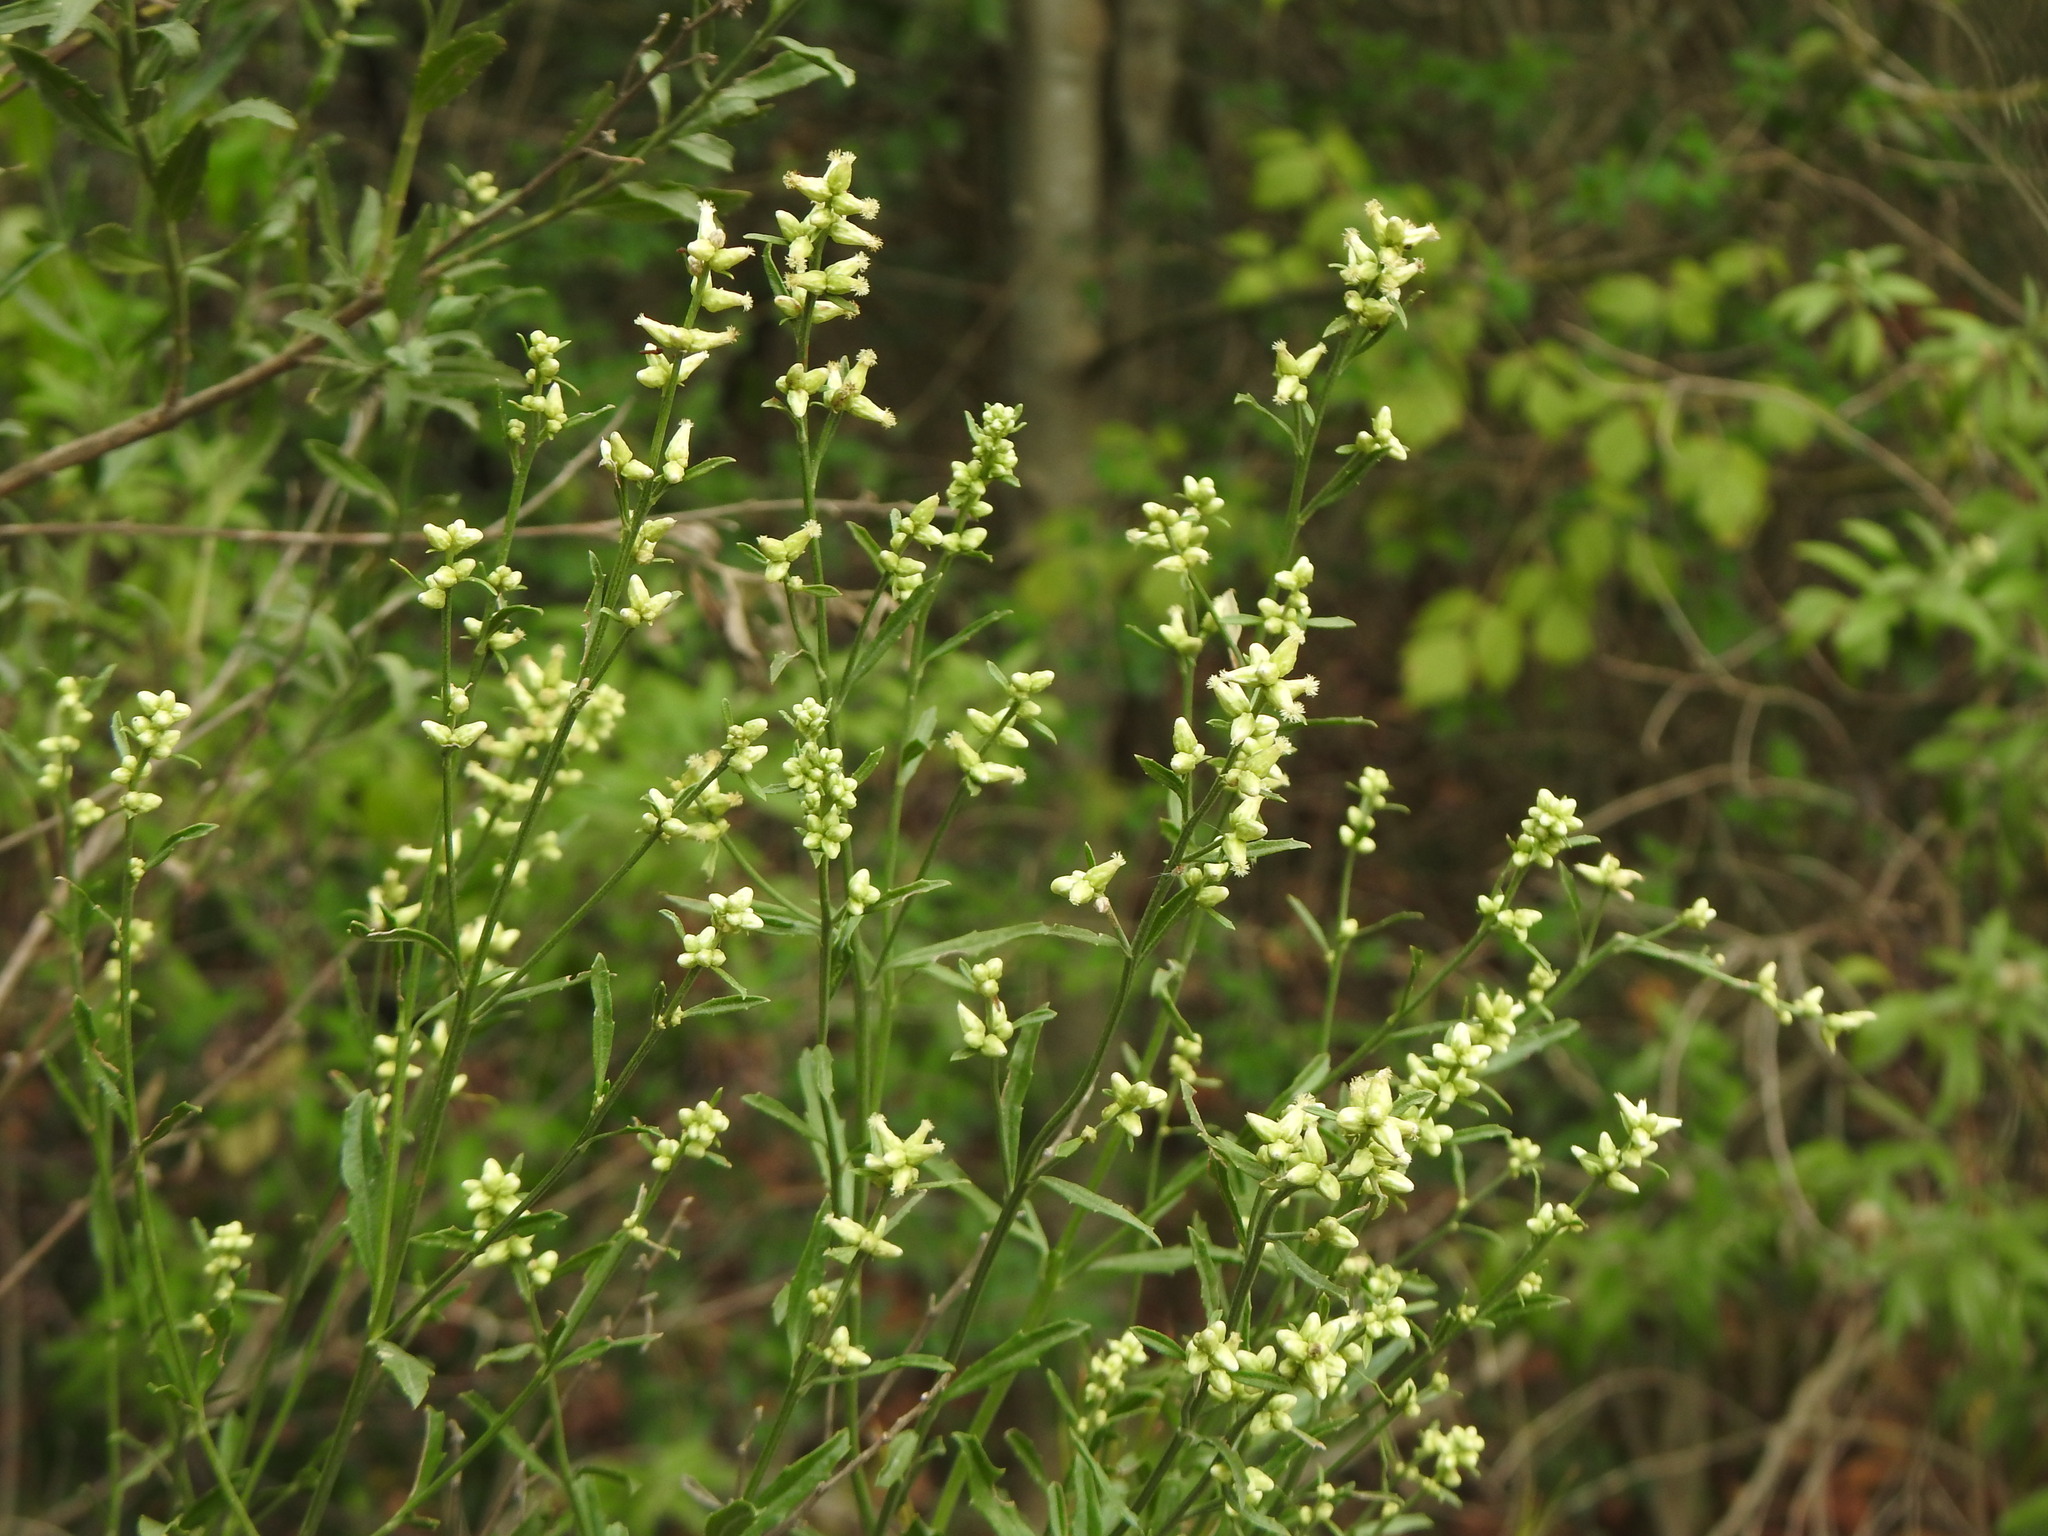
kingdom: Plantae
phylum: Tracheophyta
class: Magnoliopsida
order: Asterales
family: Asteraceae
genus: Baccharis
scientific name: Baccharis spicata
